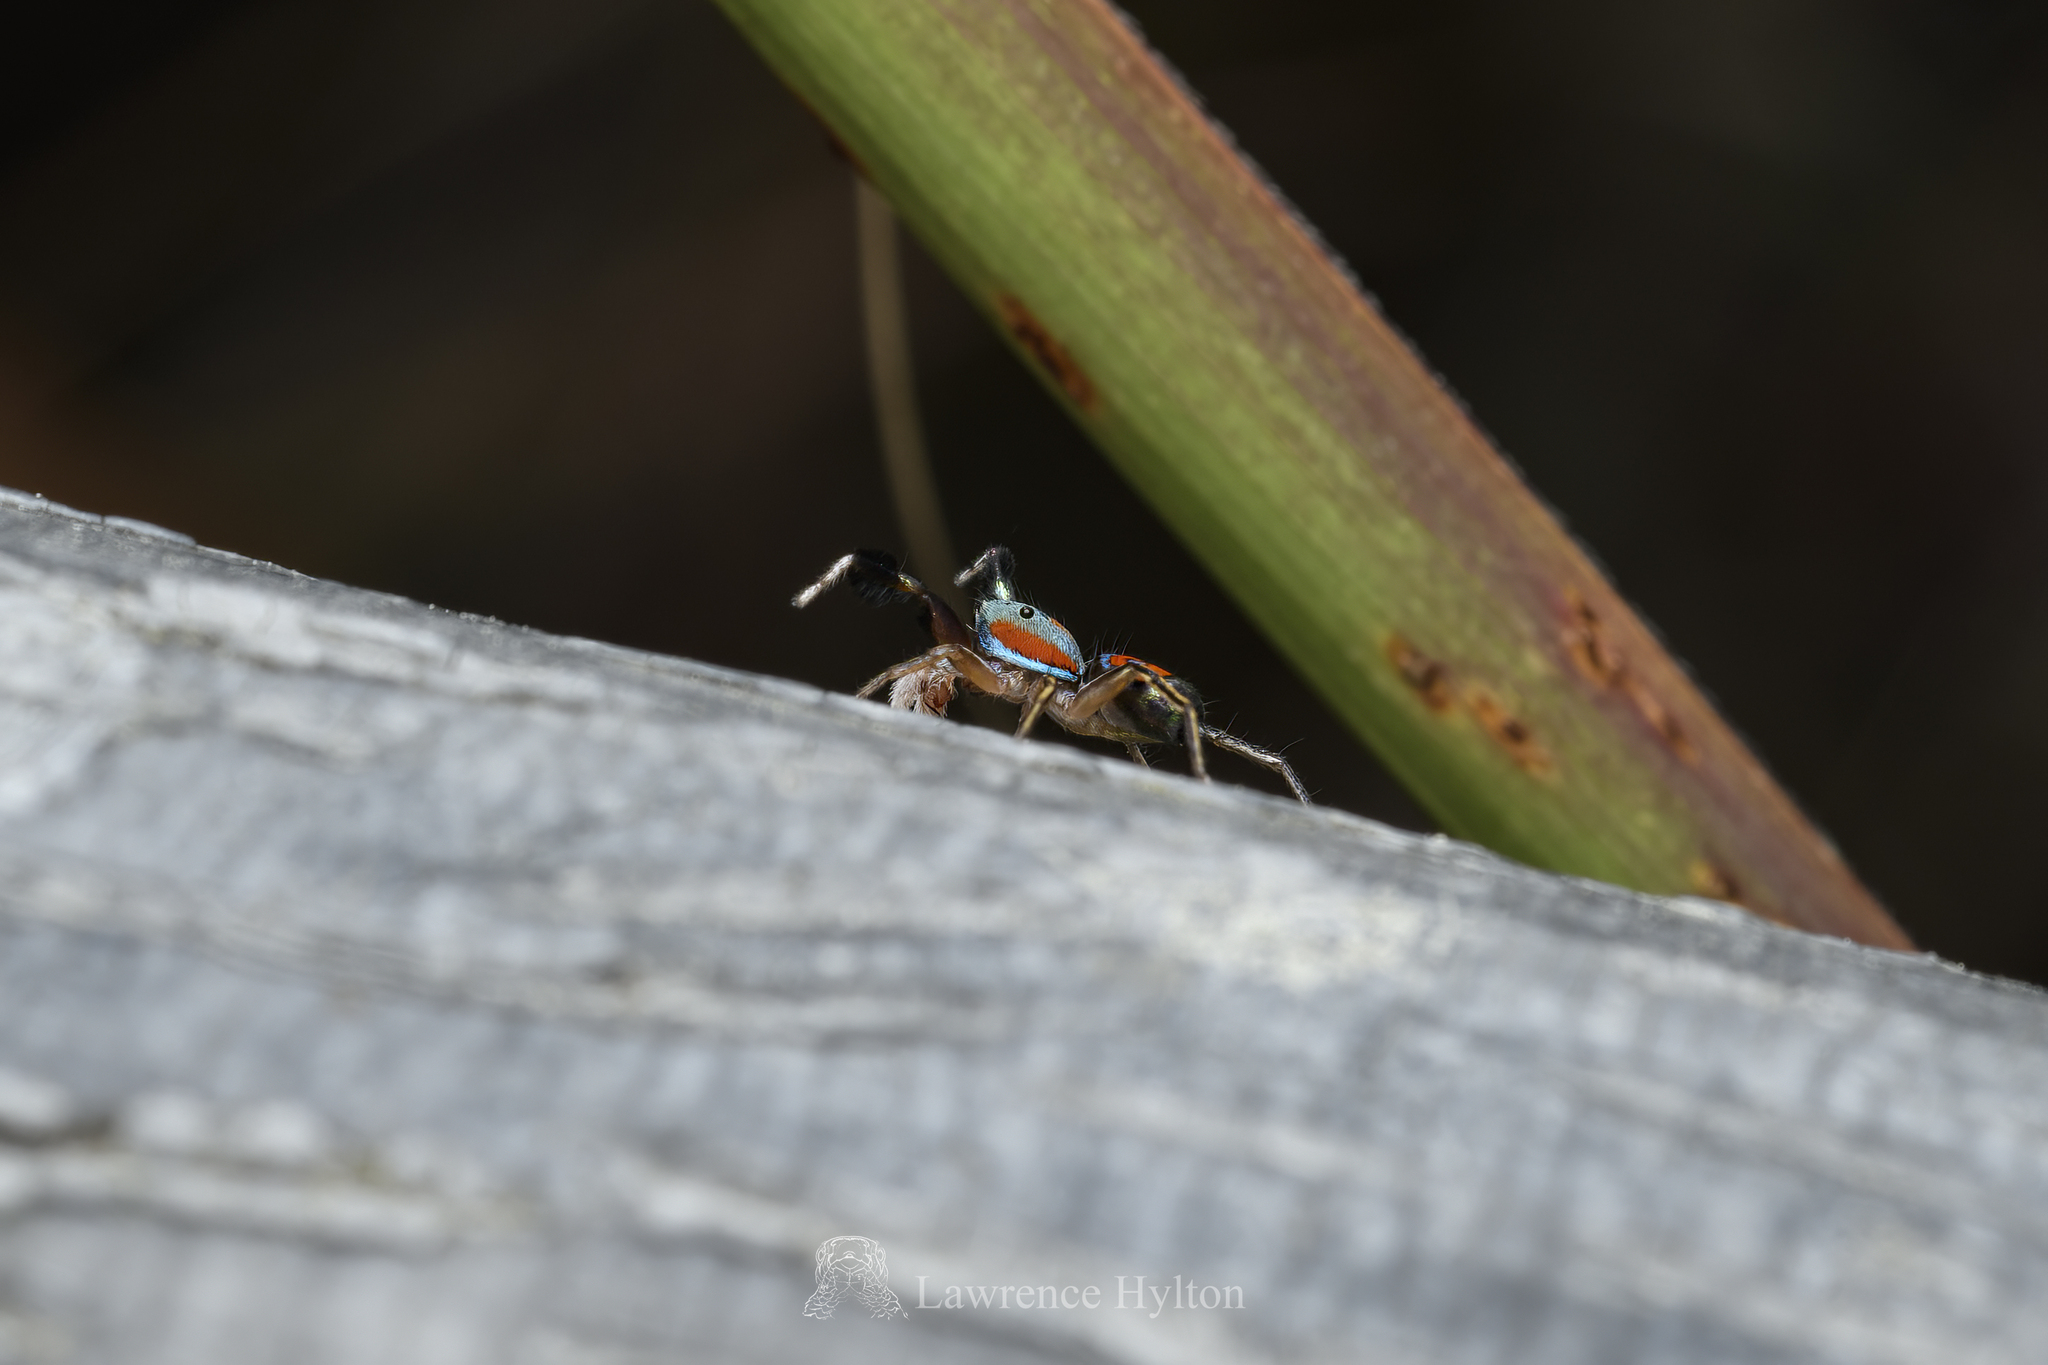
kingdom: Animalia
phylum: Arthropoda
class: Arachnida
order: Araneae
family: Salticidae
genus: Siler
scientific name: Siler collingwoodi
